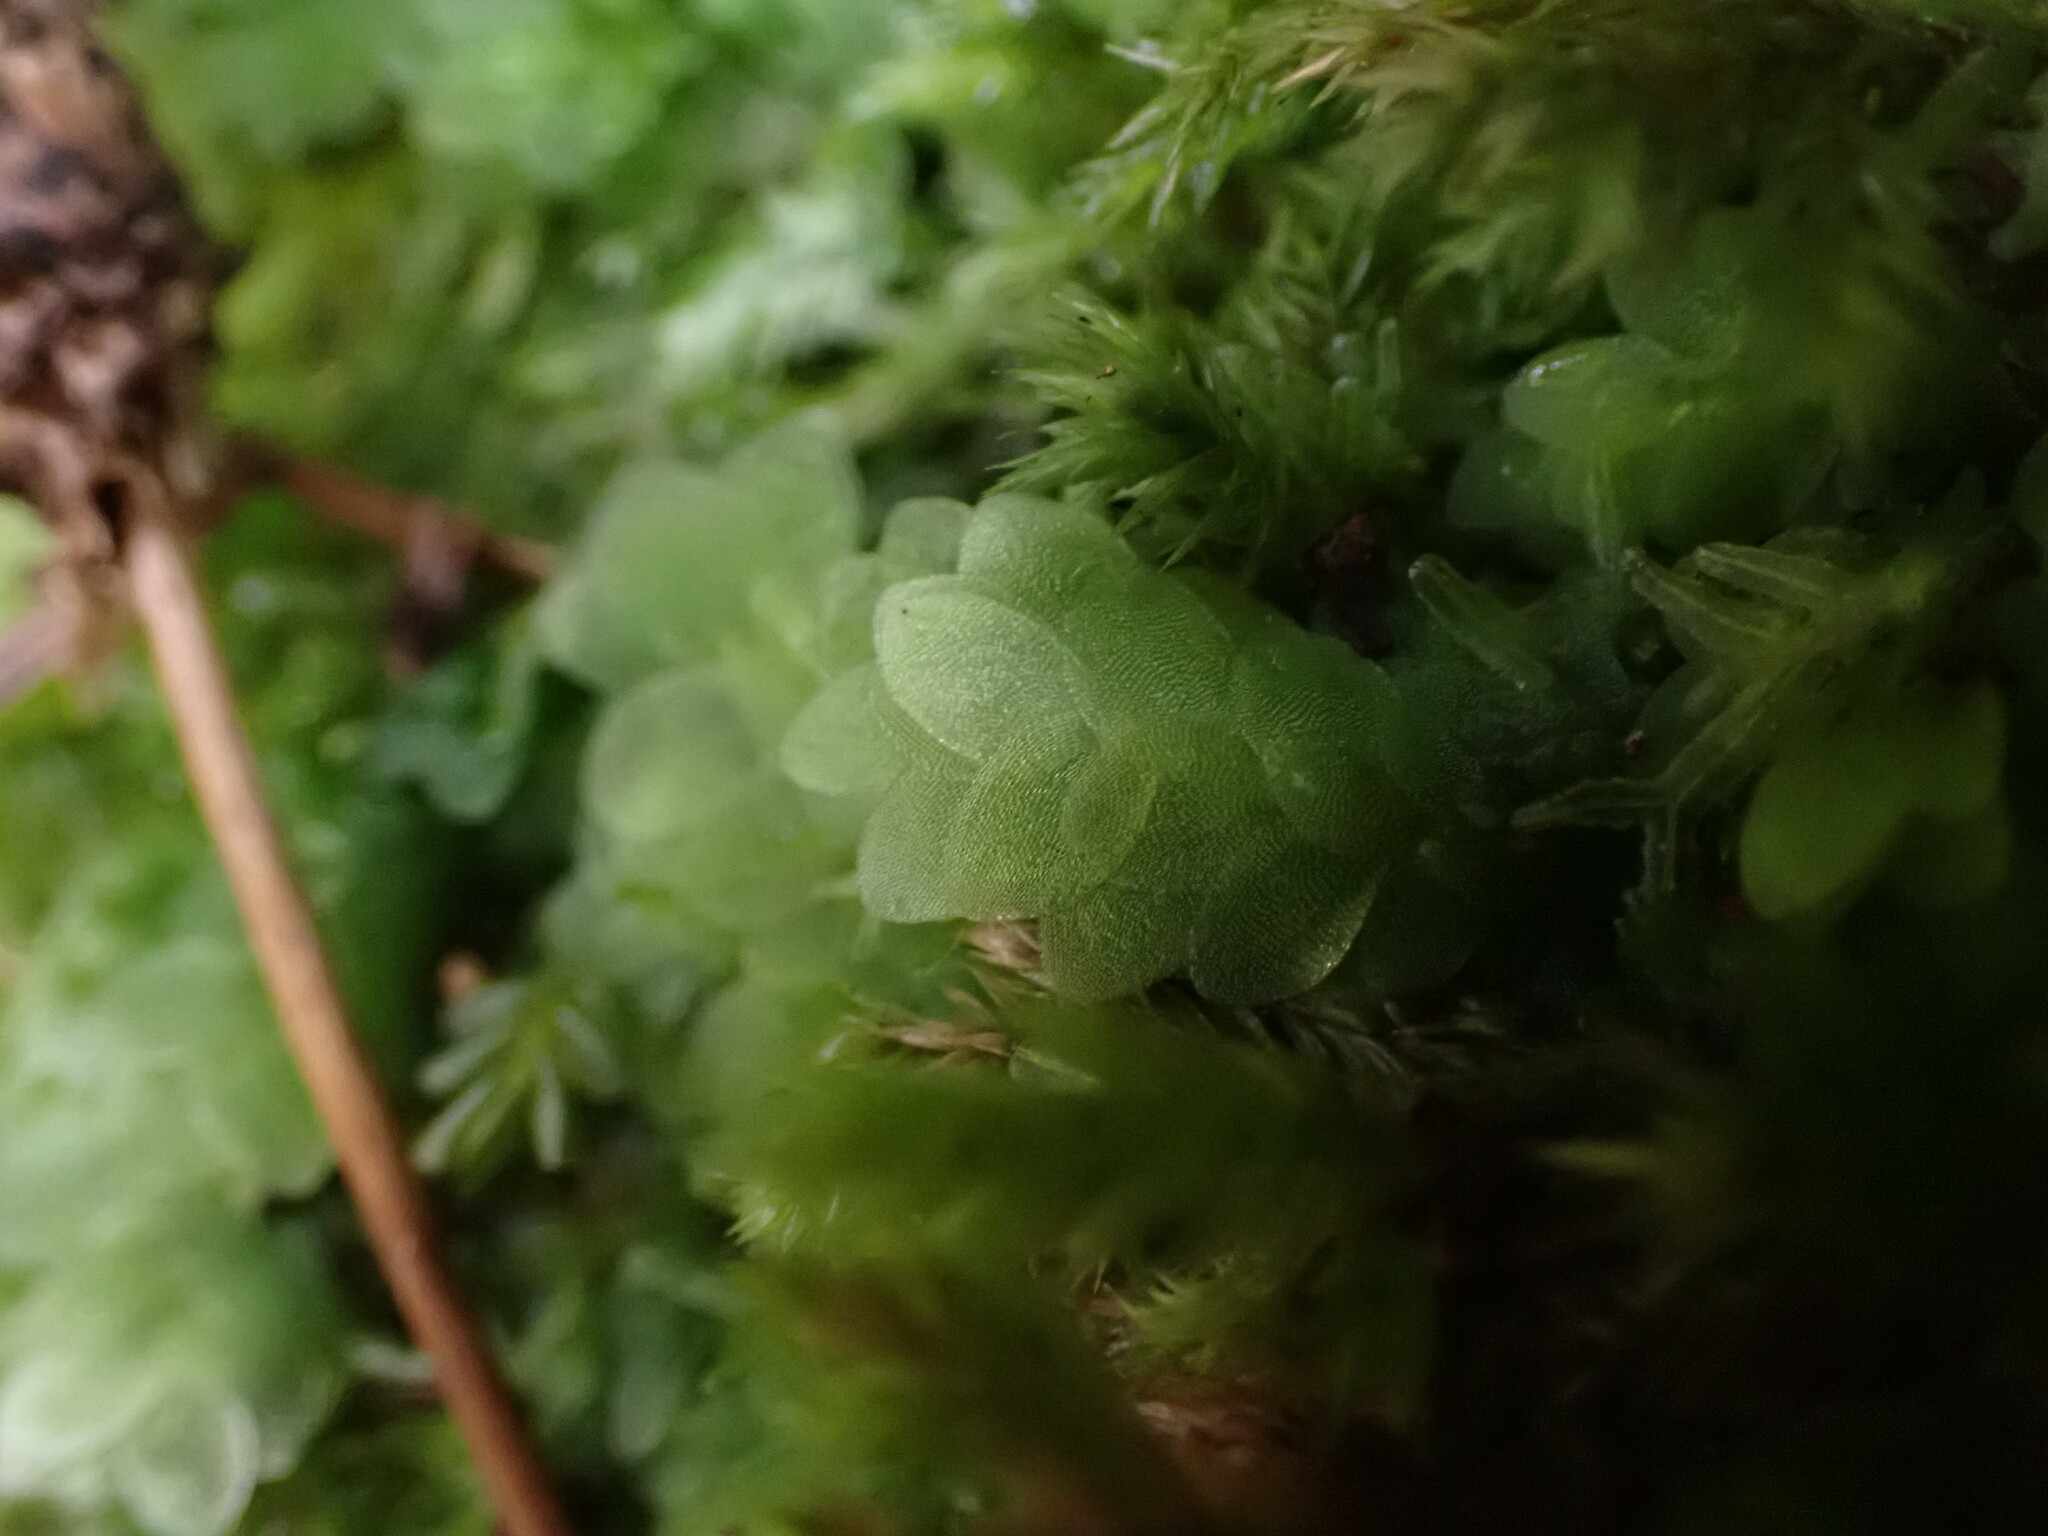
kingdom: Plantae
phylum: Bryophyta
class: Bryopsida
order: Hookeriales
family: Hookeriaceae
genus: Hookeria
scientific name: Hookeria lucens
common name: Shining hookeria
